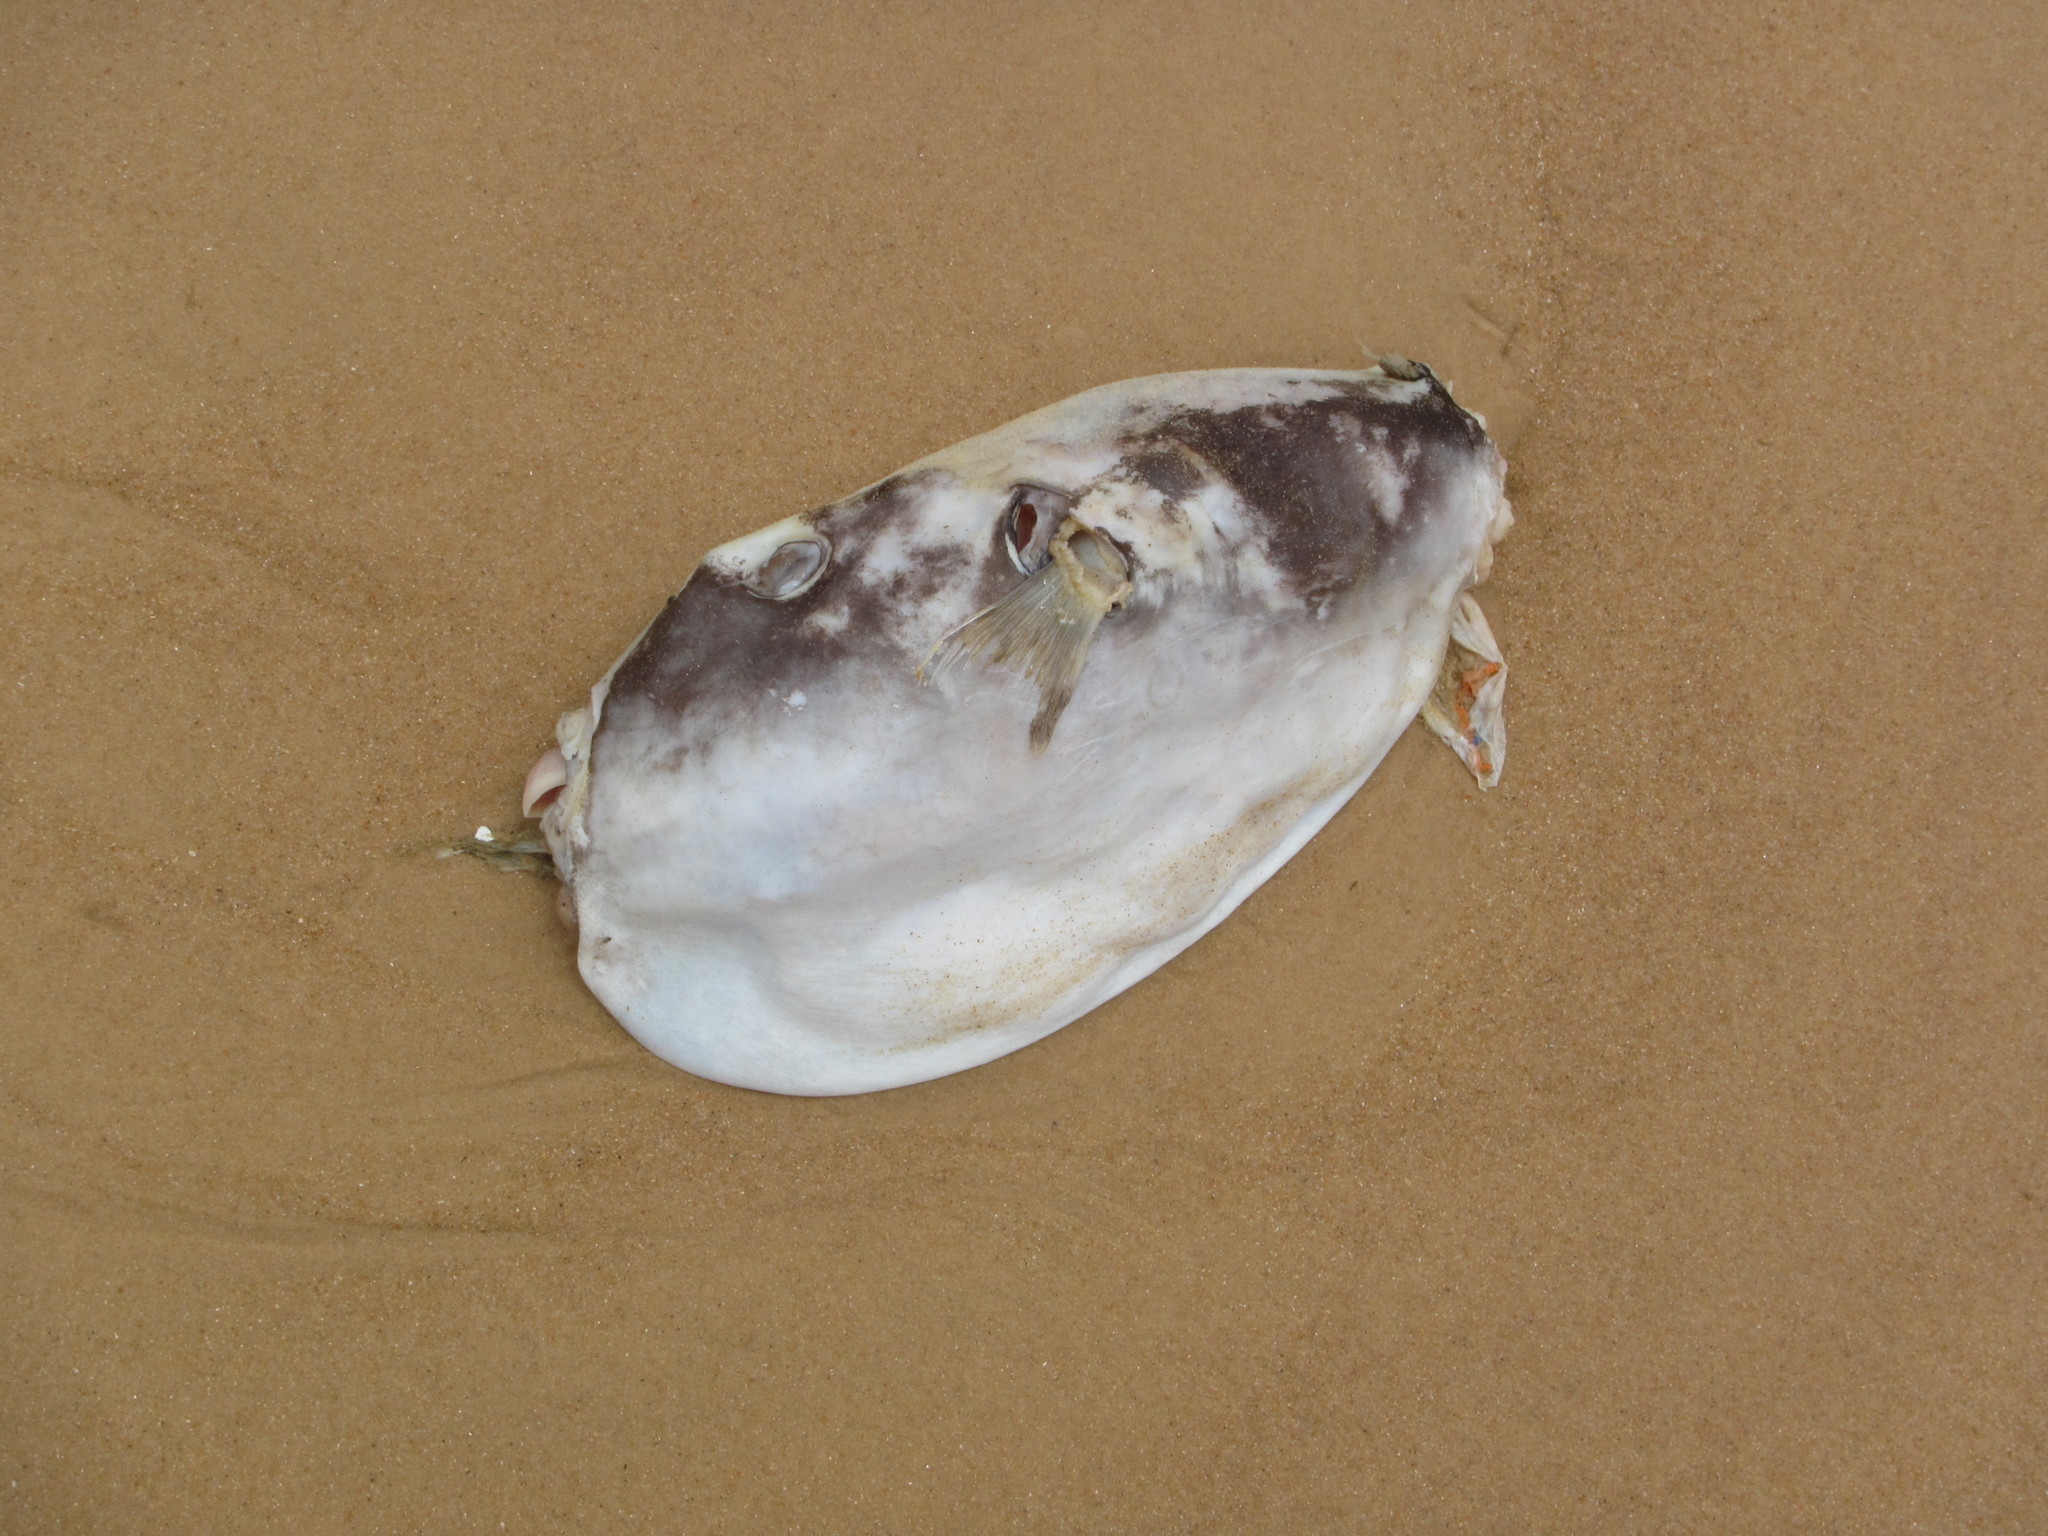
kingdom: Animalia
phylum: Chordata
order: Tetraodontiformes
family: Tetraodontidae
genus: Sphoeroides
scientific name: Sphoeroides pachygaster
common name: Blunthead puffer
